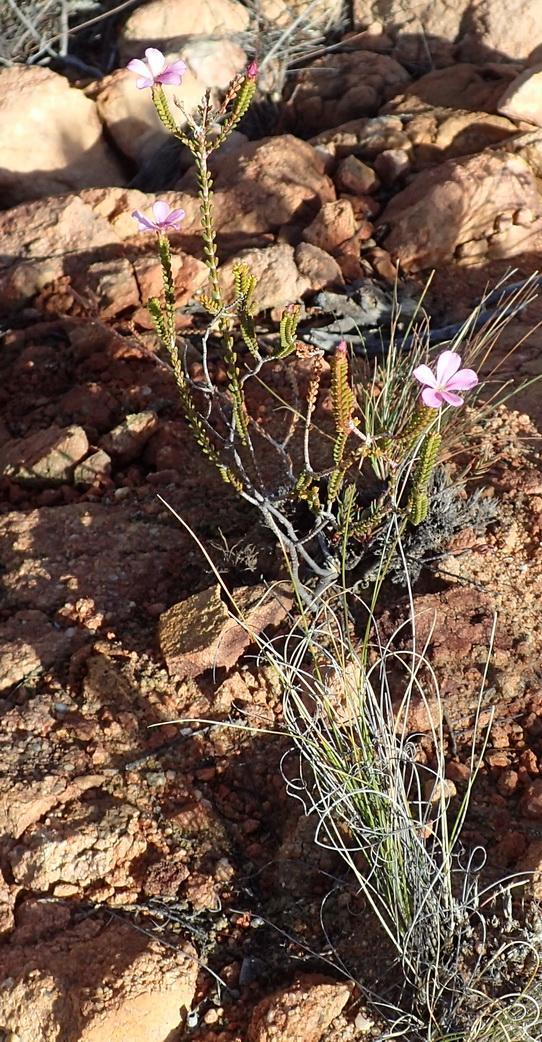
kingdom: Plantae
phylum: Tracheophyta
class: Magnoliopsida
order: Sapindales
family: Rutaceae
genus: Acmadenia
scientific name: Acmadenia sheilae
